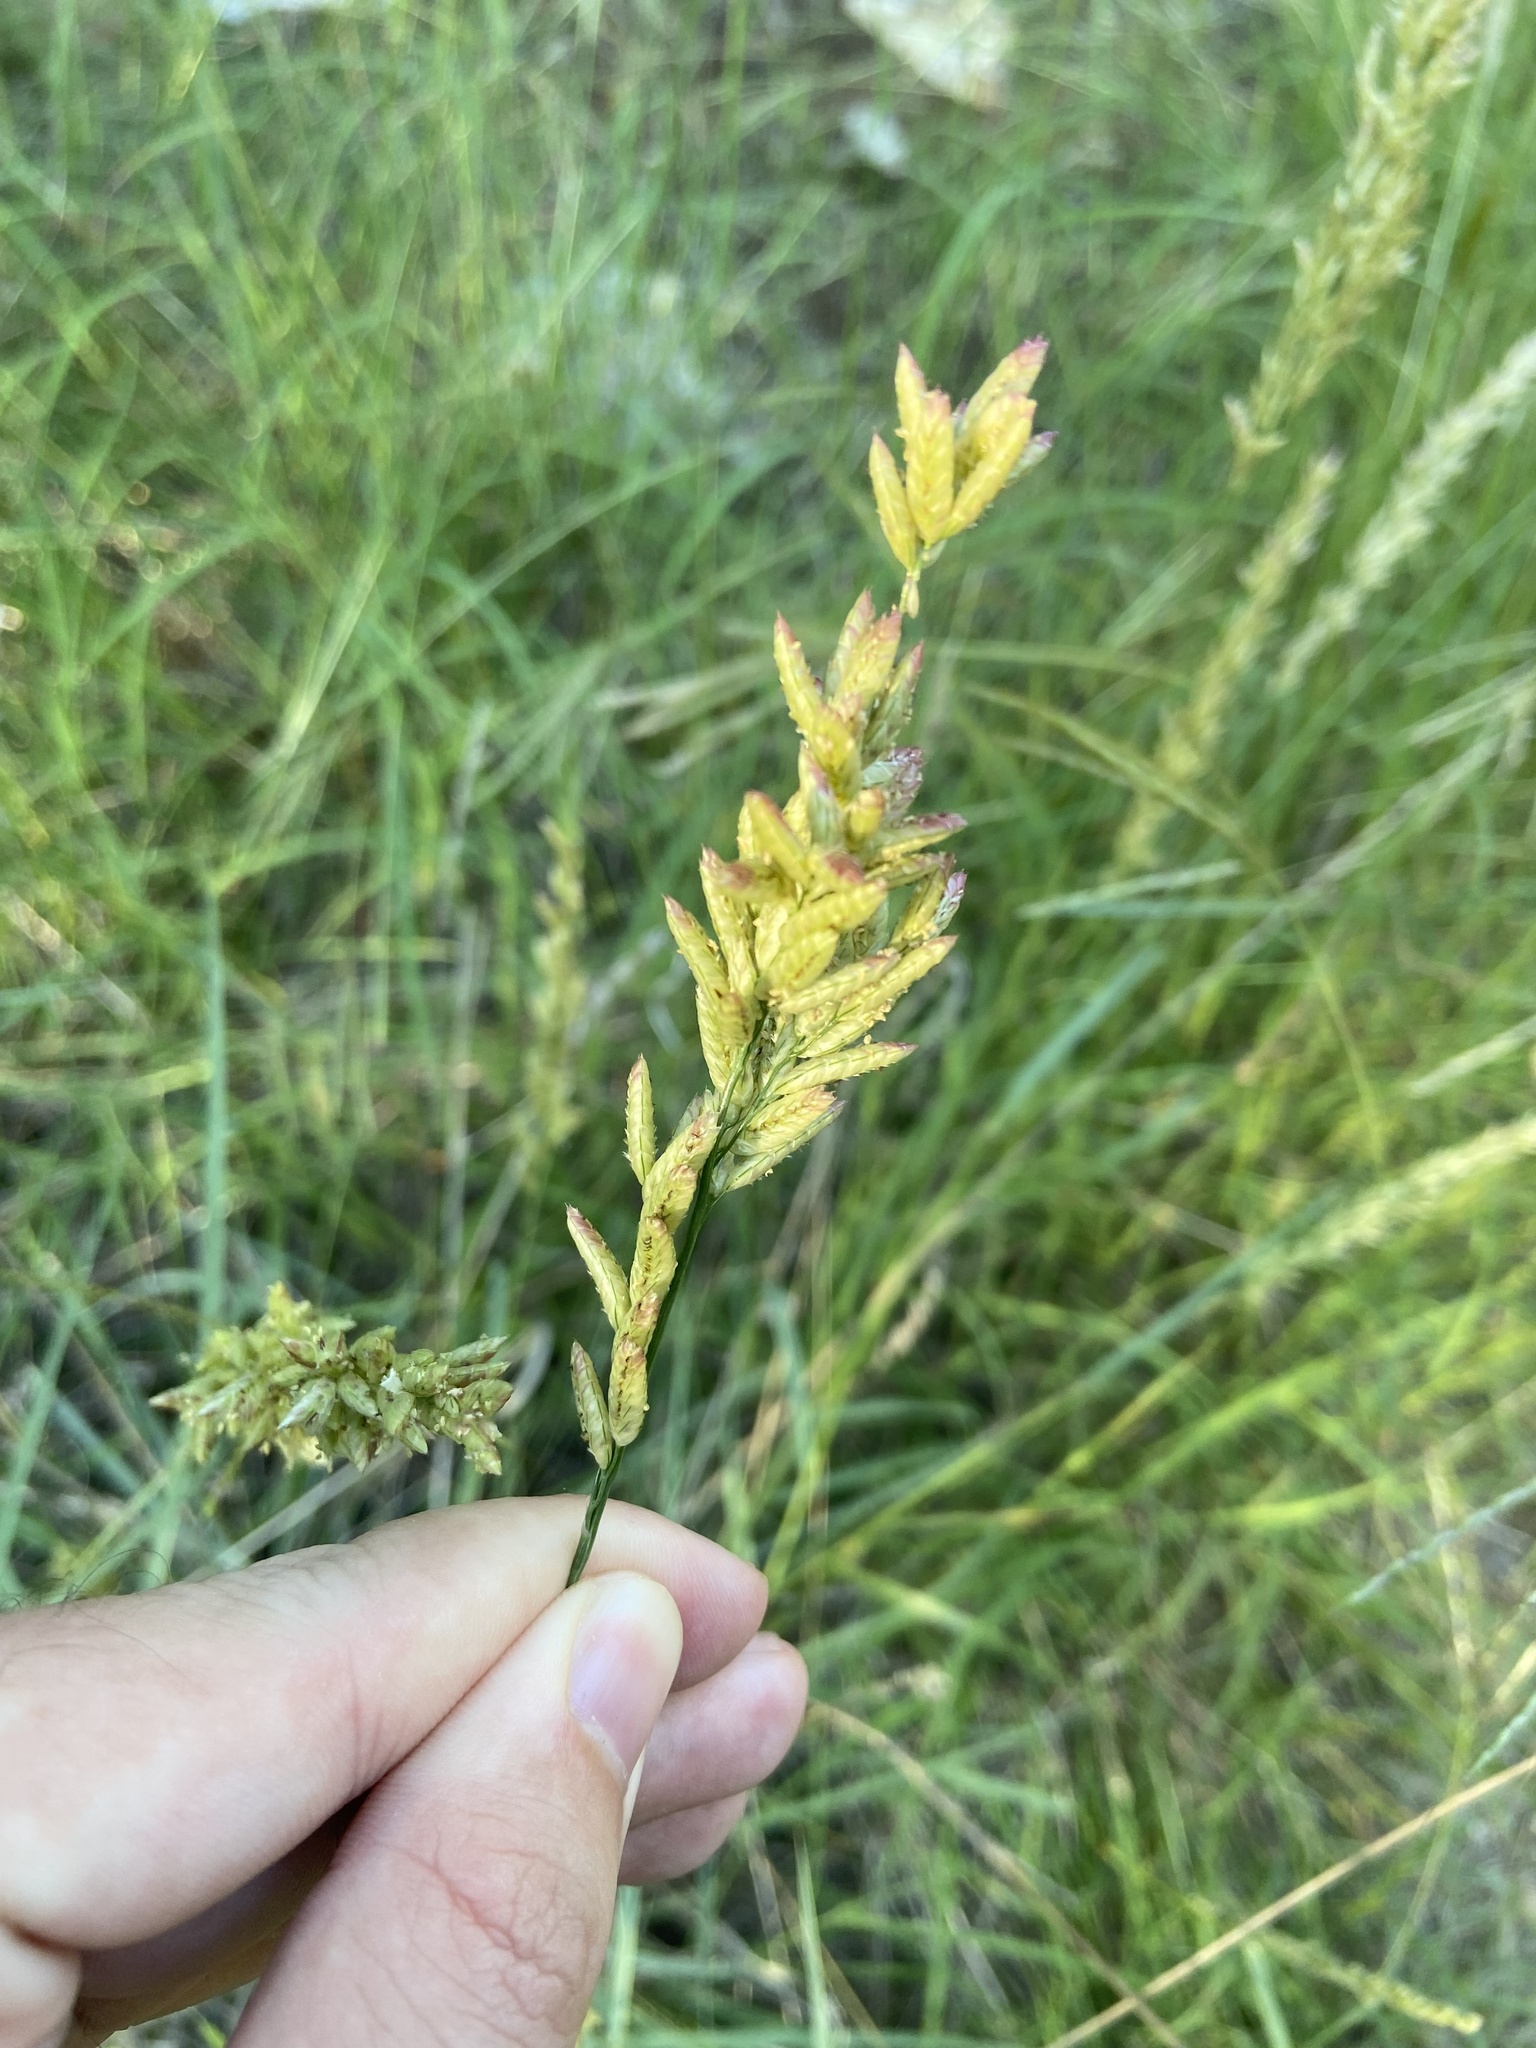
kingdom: Plantae
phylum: Tracheophyta
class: Liliopsida
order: Poales
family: Poaceae
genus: Tridens
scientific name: Tridens congestus
